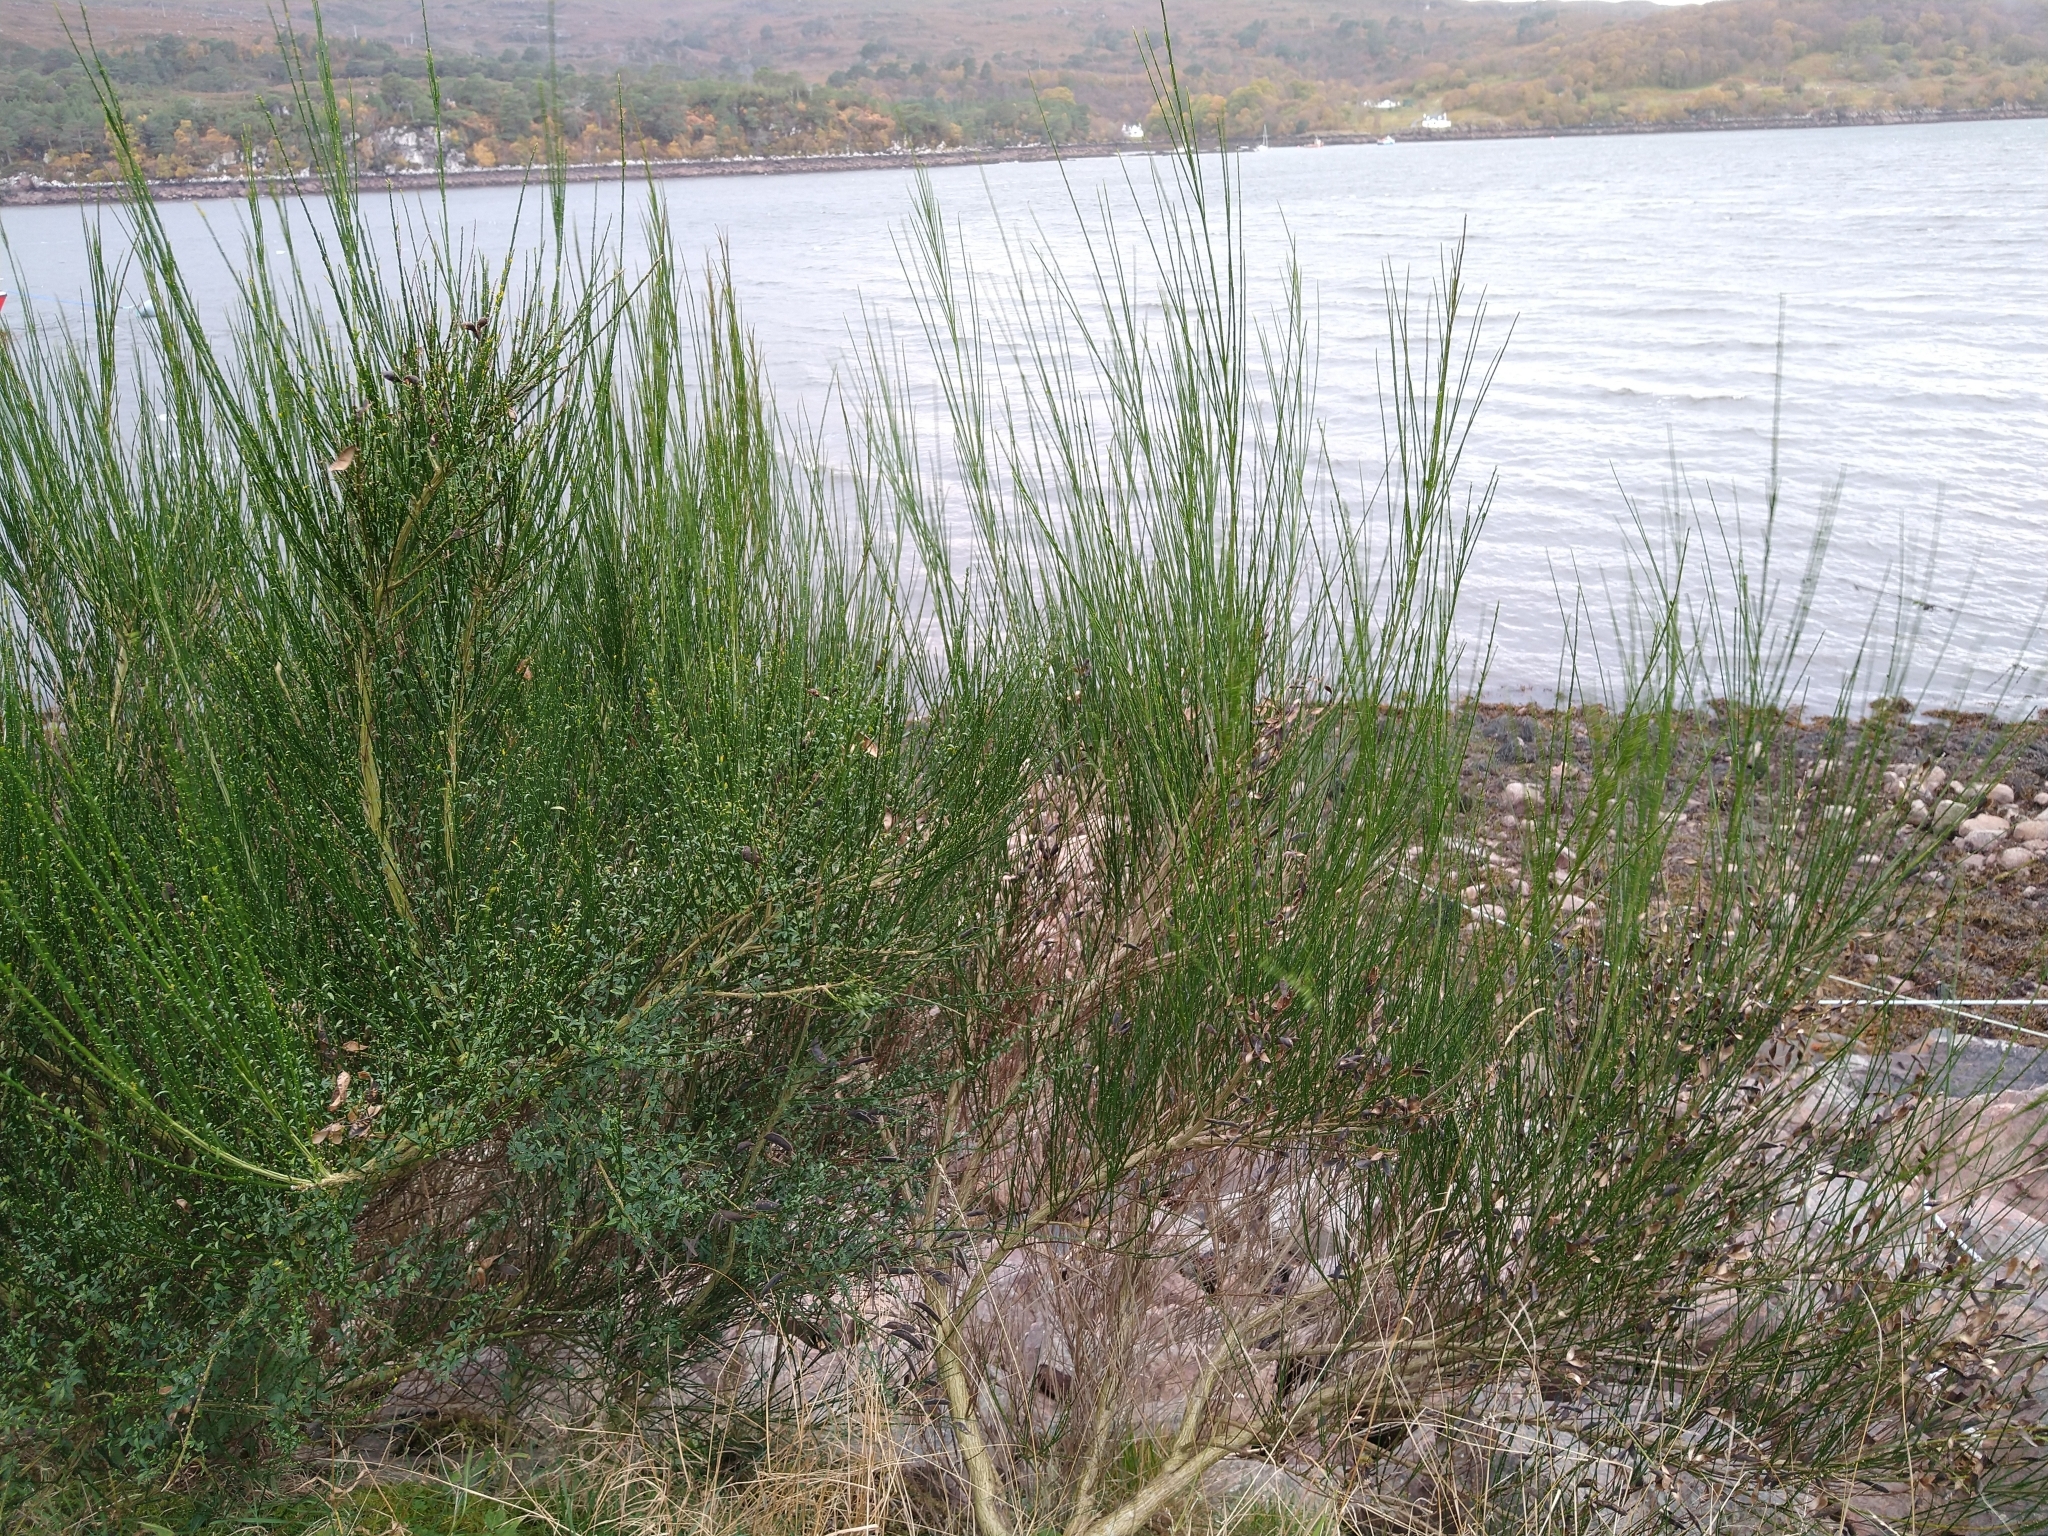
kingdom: Plantae
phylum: Tracheophyta
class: Magnoliopsida
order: Fabales
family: Fabaceae
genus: Cytisus
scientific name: Cytisus scoparius
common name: Scotch broom
